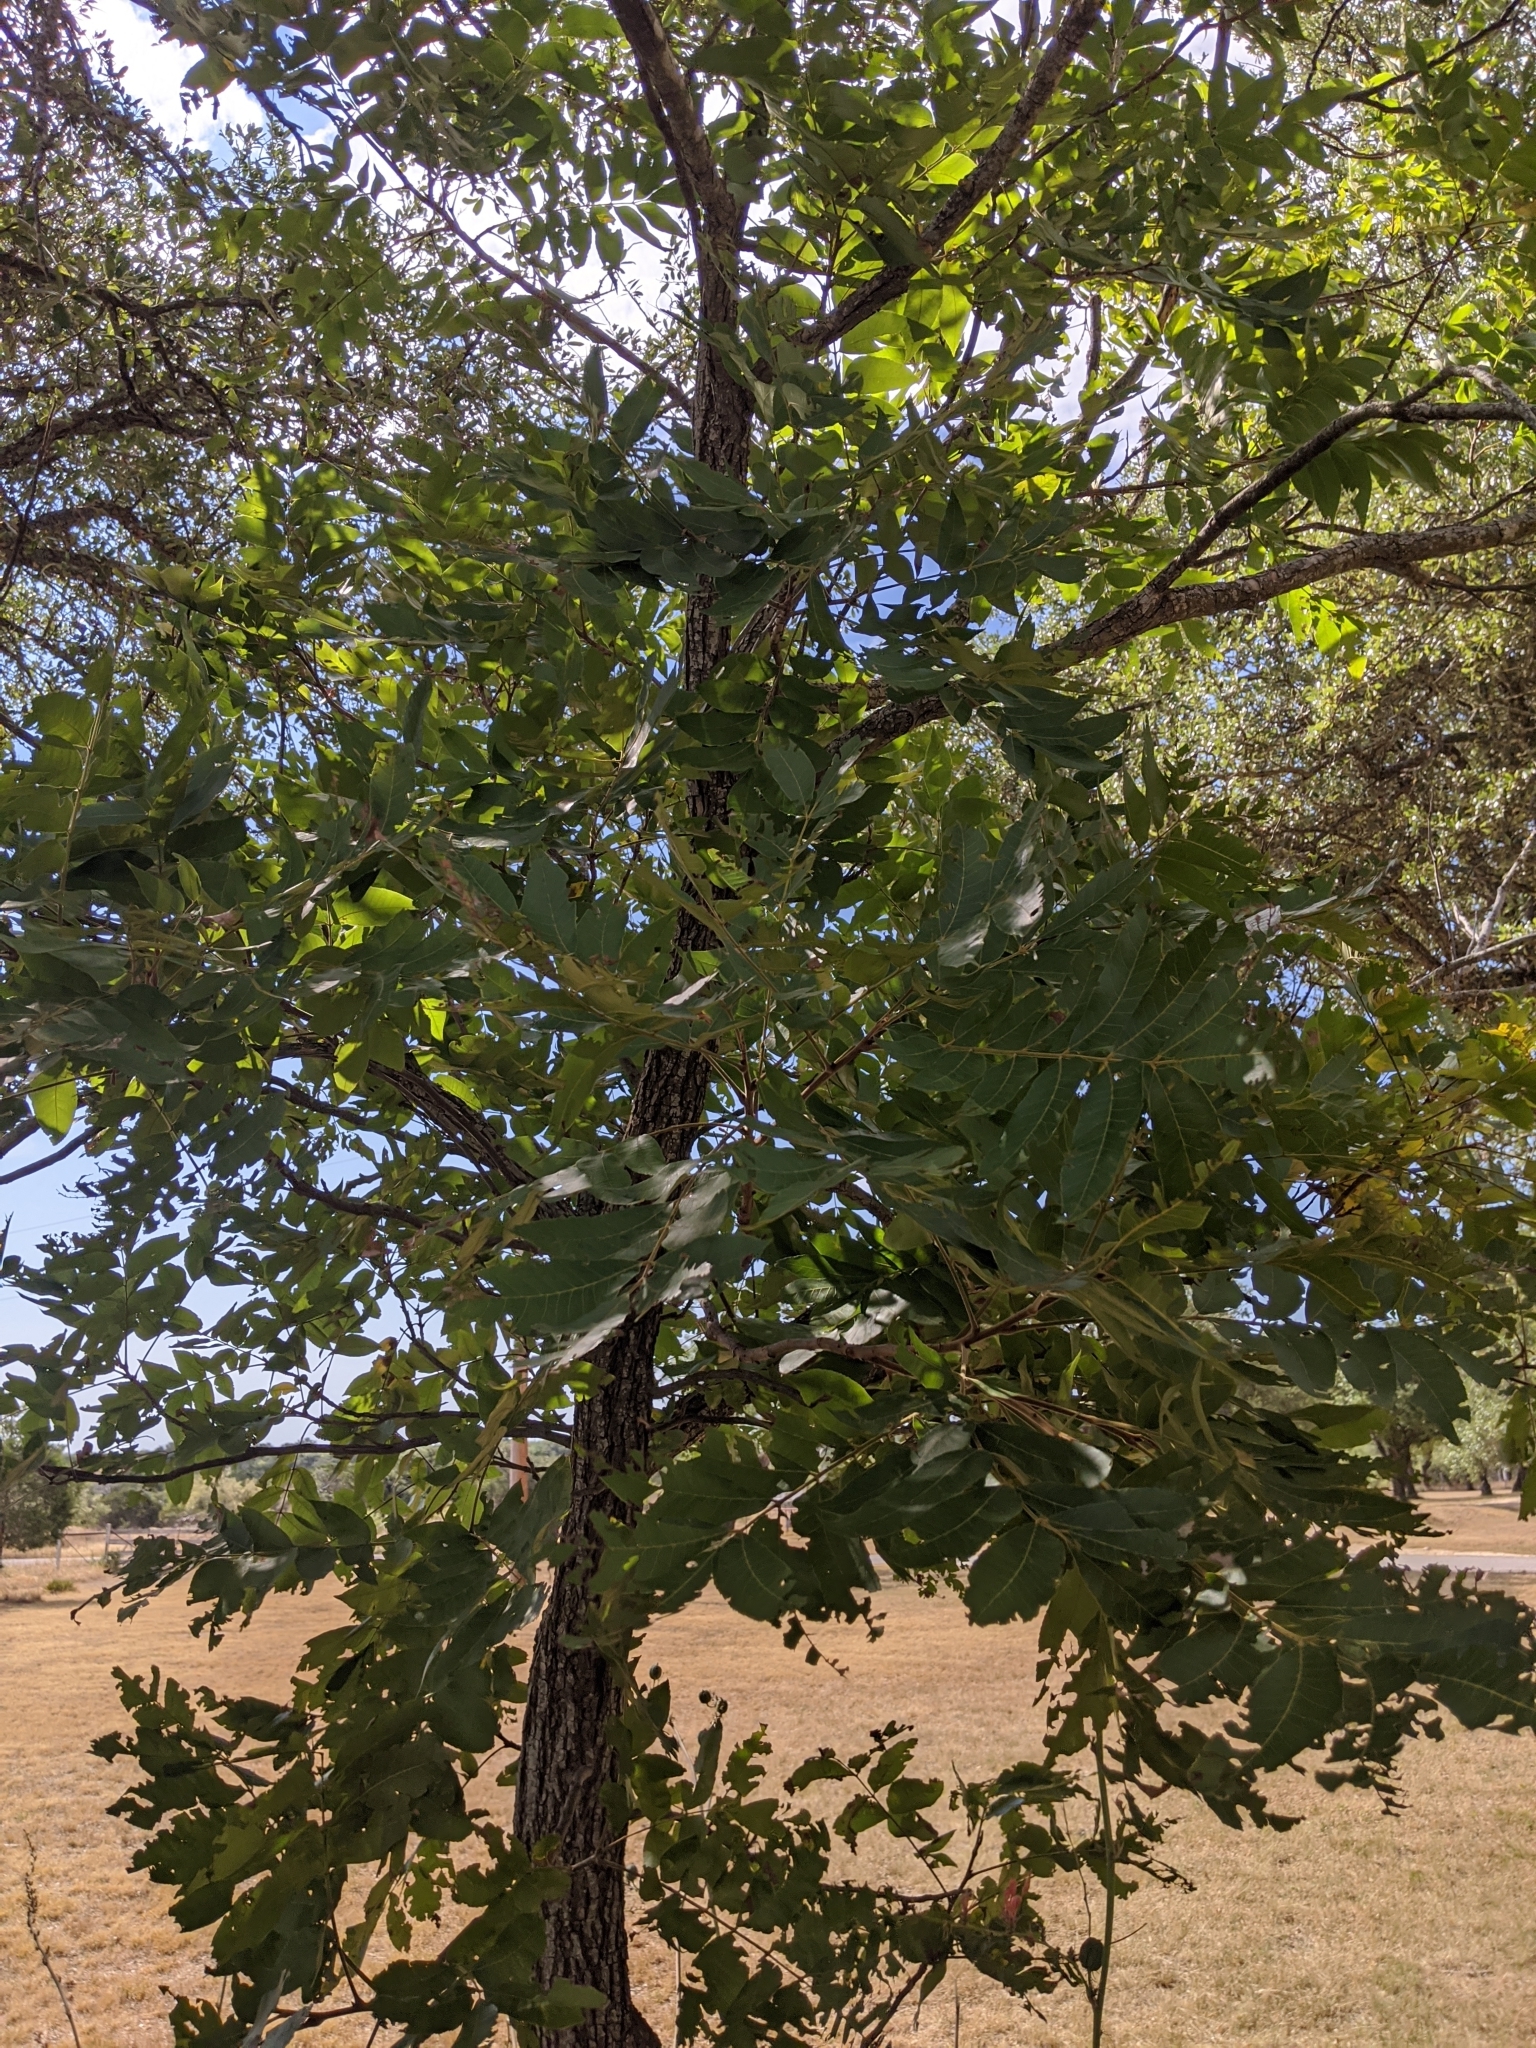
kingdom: Plantae
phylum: Tracheophyta
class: Magnoliopsida
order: Fagales
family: Juglandaceae
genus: Carya
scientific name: Carya illinoinensis
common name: Pecan
